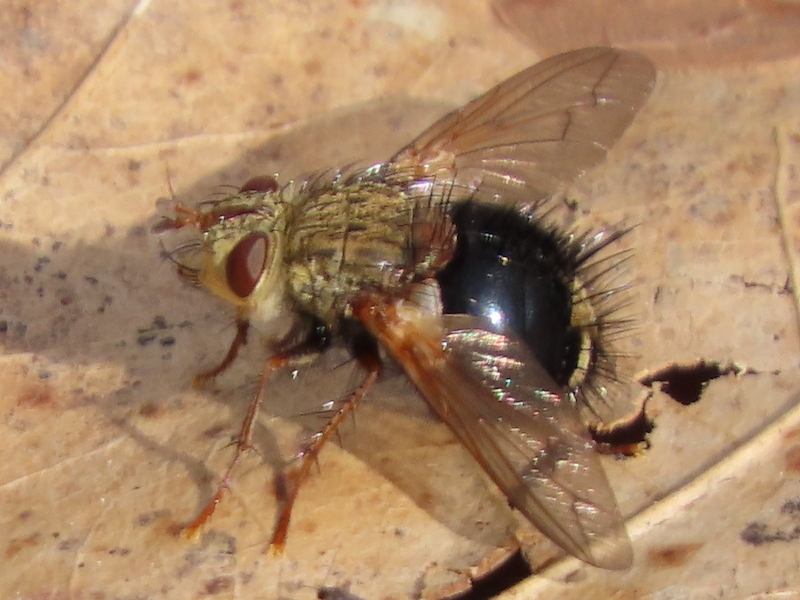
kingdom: Animalia
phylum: Arthropoda
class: Insecta
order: Diptera
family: Tachinidae
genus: Epalpus
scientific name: Epalpus signifer
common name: Early tachinid fly
